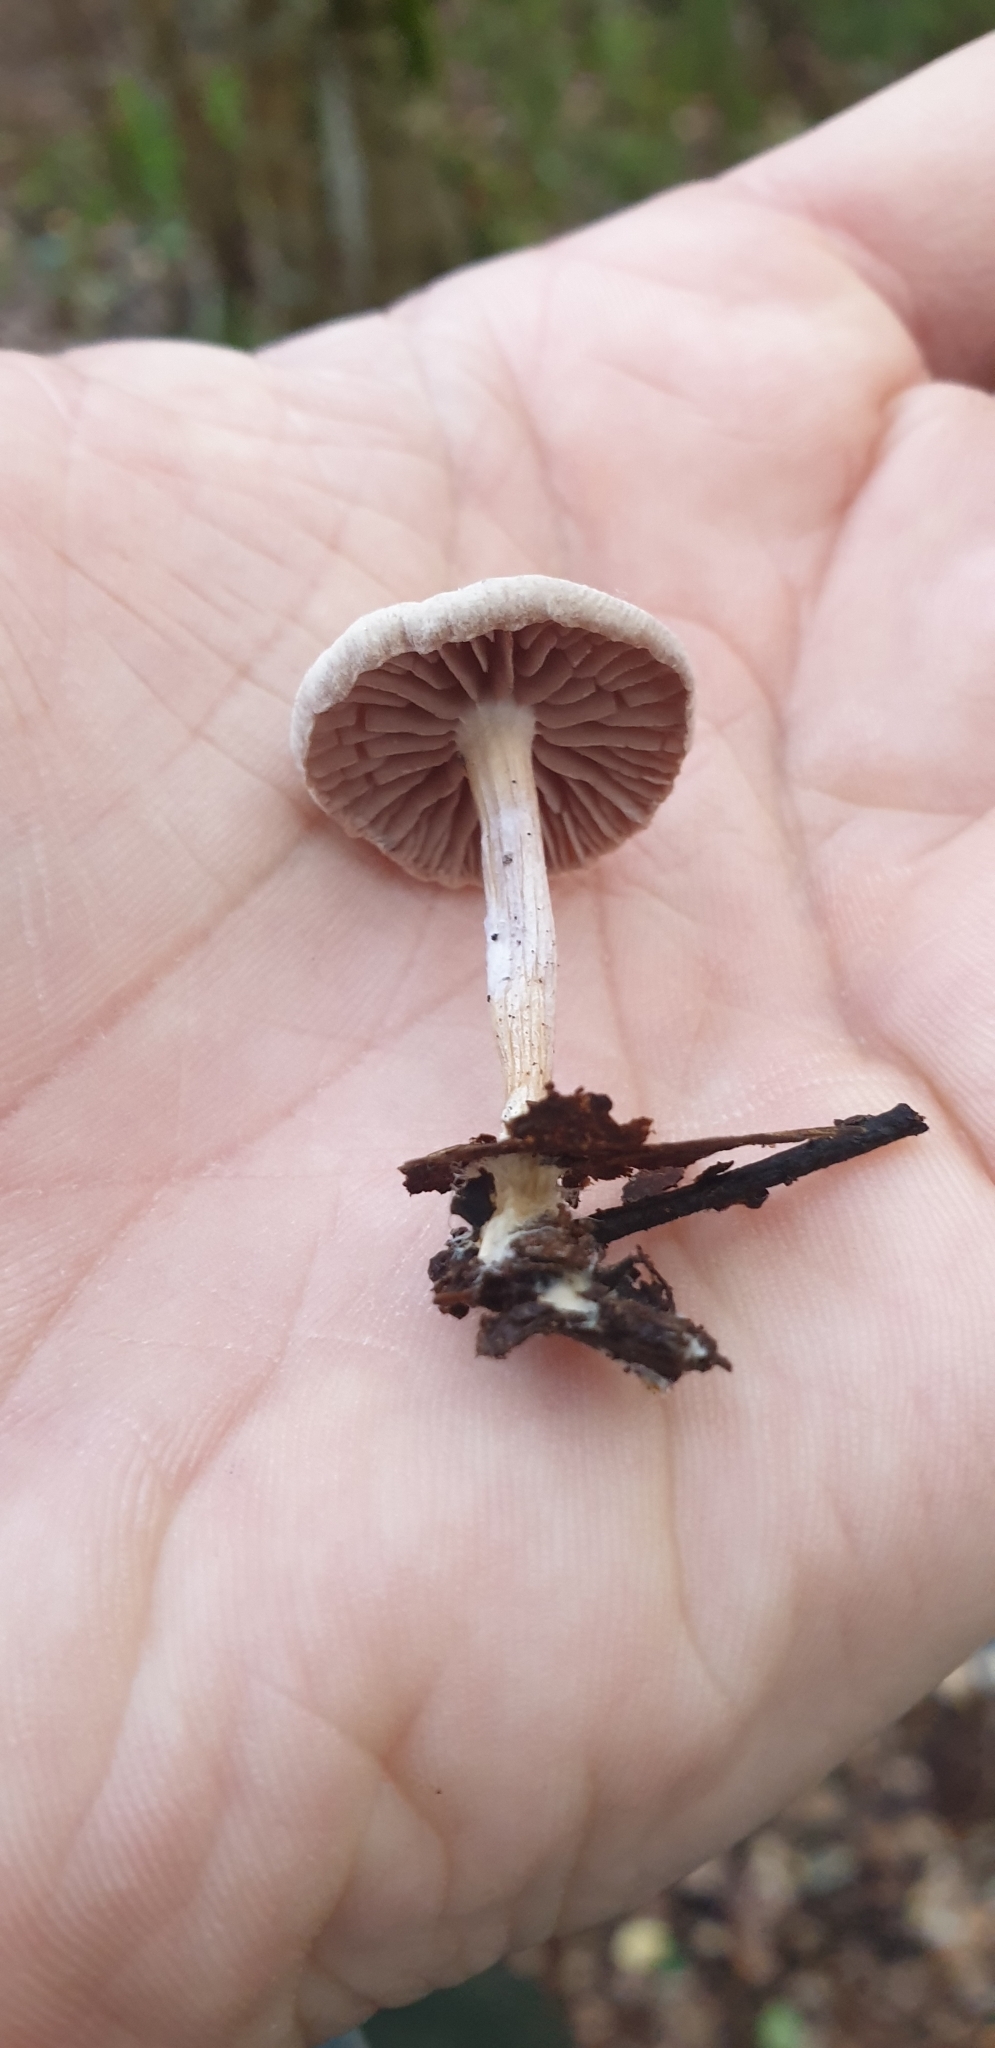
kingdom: Fungi
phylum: Basidiomycota
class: Agaricomycetes
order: Agaricales
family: Hydnangiaceae
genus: Laccaria
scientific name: Laccaria masoniae
